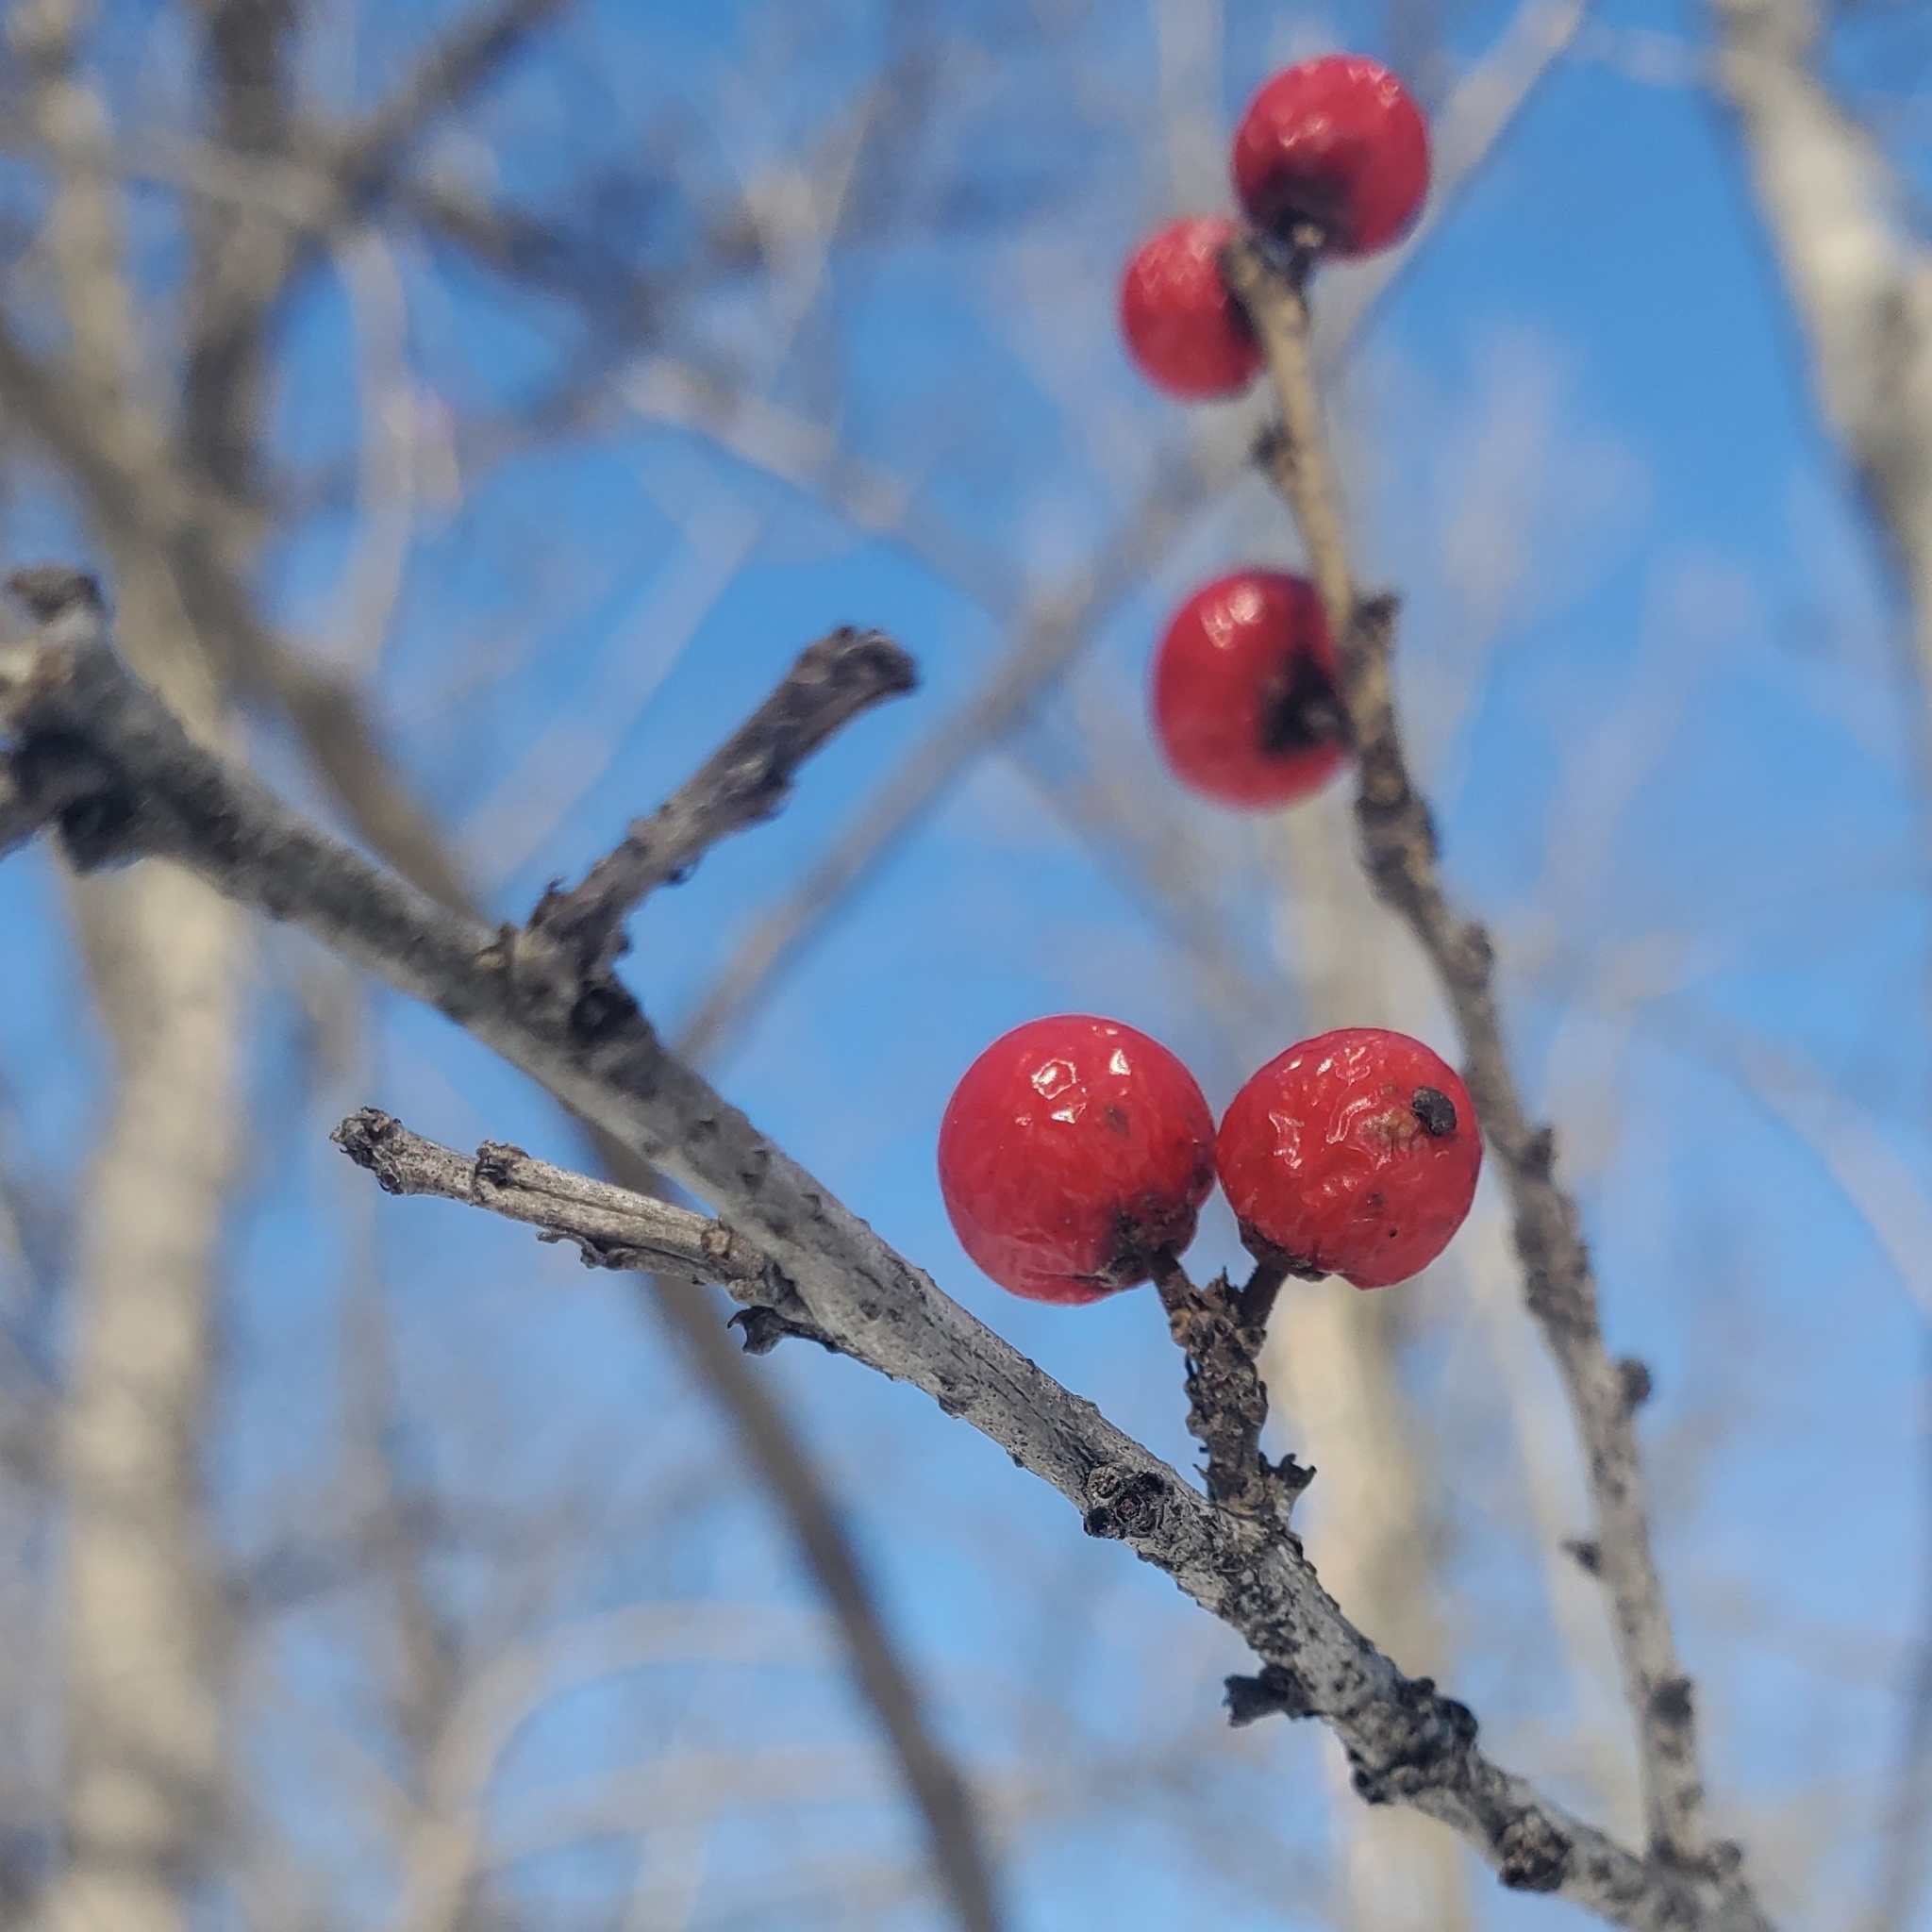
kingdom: Plantae
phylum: Tracheophyta
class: Magnoliopsida
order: Aquifoliales
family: Aquifoliaceae
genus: Ilex
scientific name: Ilex verticillata
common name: Virginia winterberry
